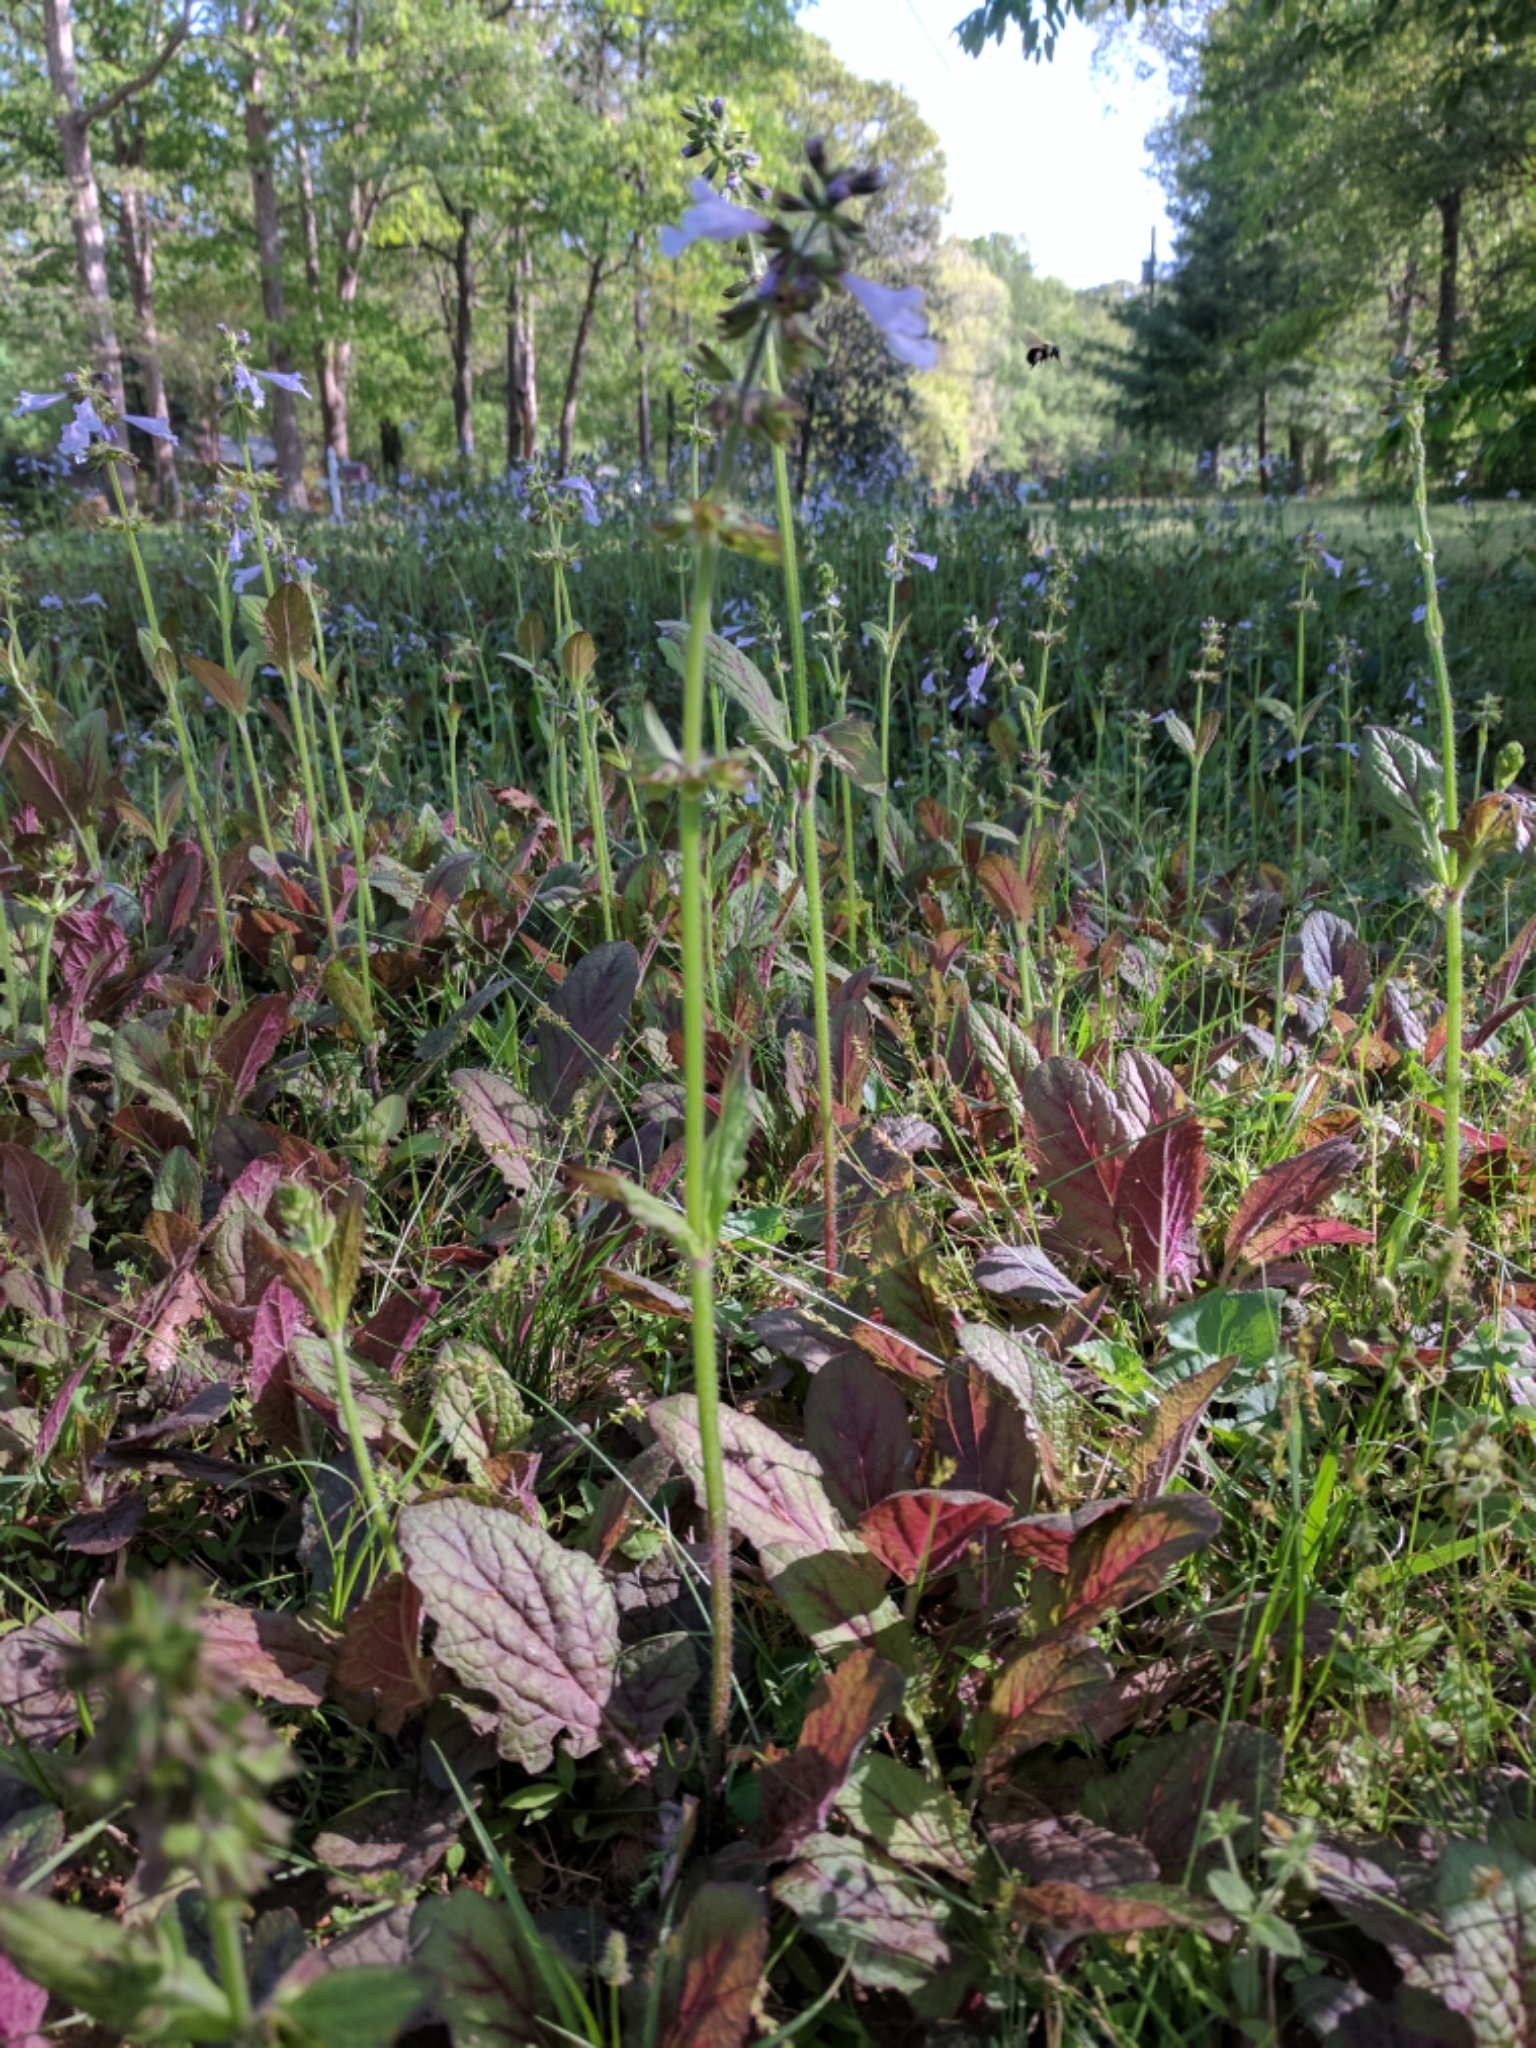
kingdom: Plantae
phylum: Tracheophyta
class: Magnoliopsida
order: Lamiales
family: Lamiaceae
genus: Salvia
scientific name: Salvia lyrata
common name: Cancerweed
